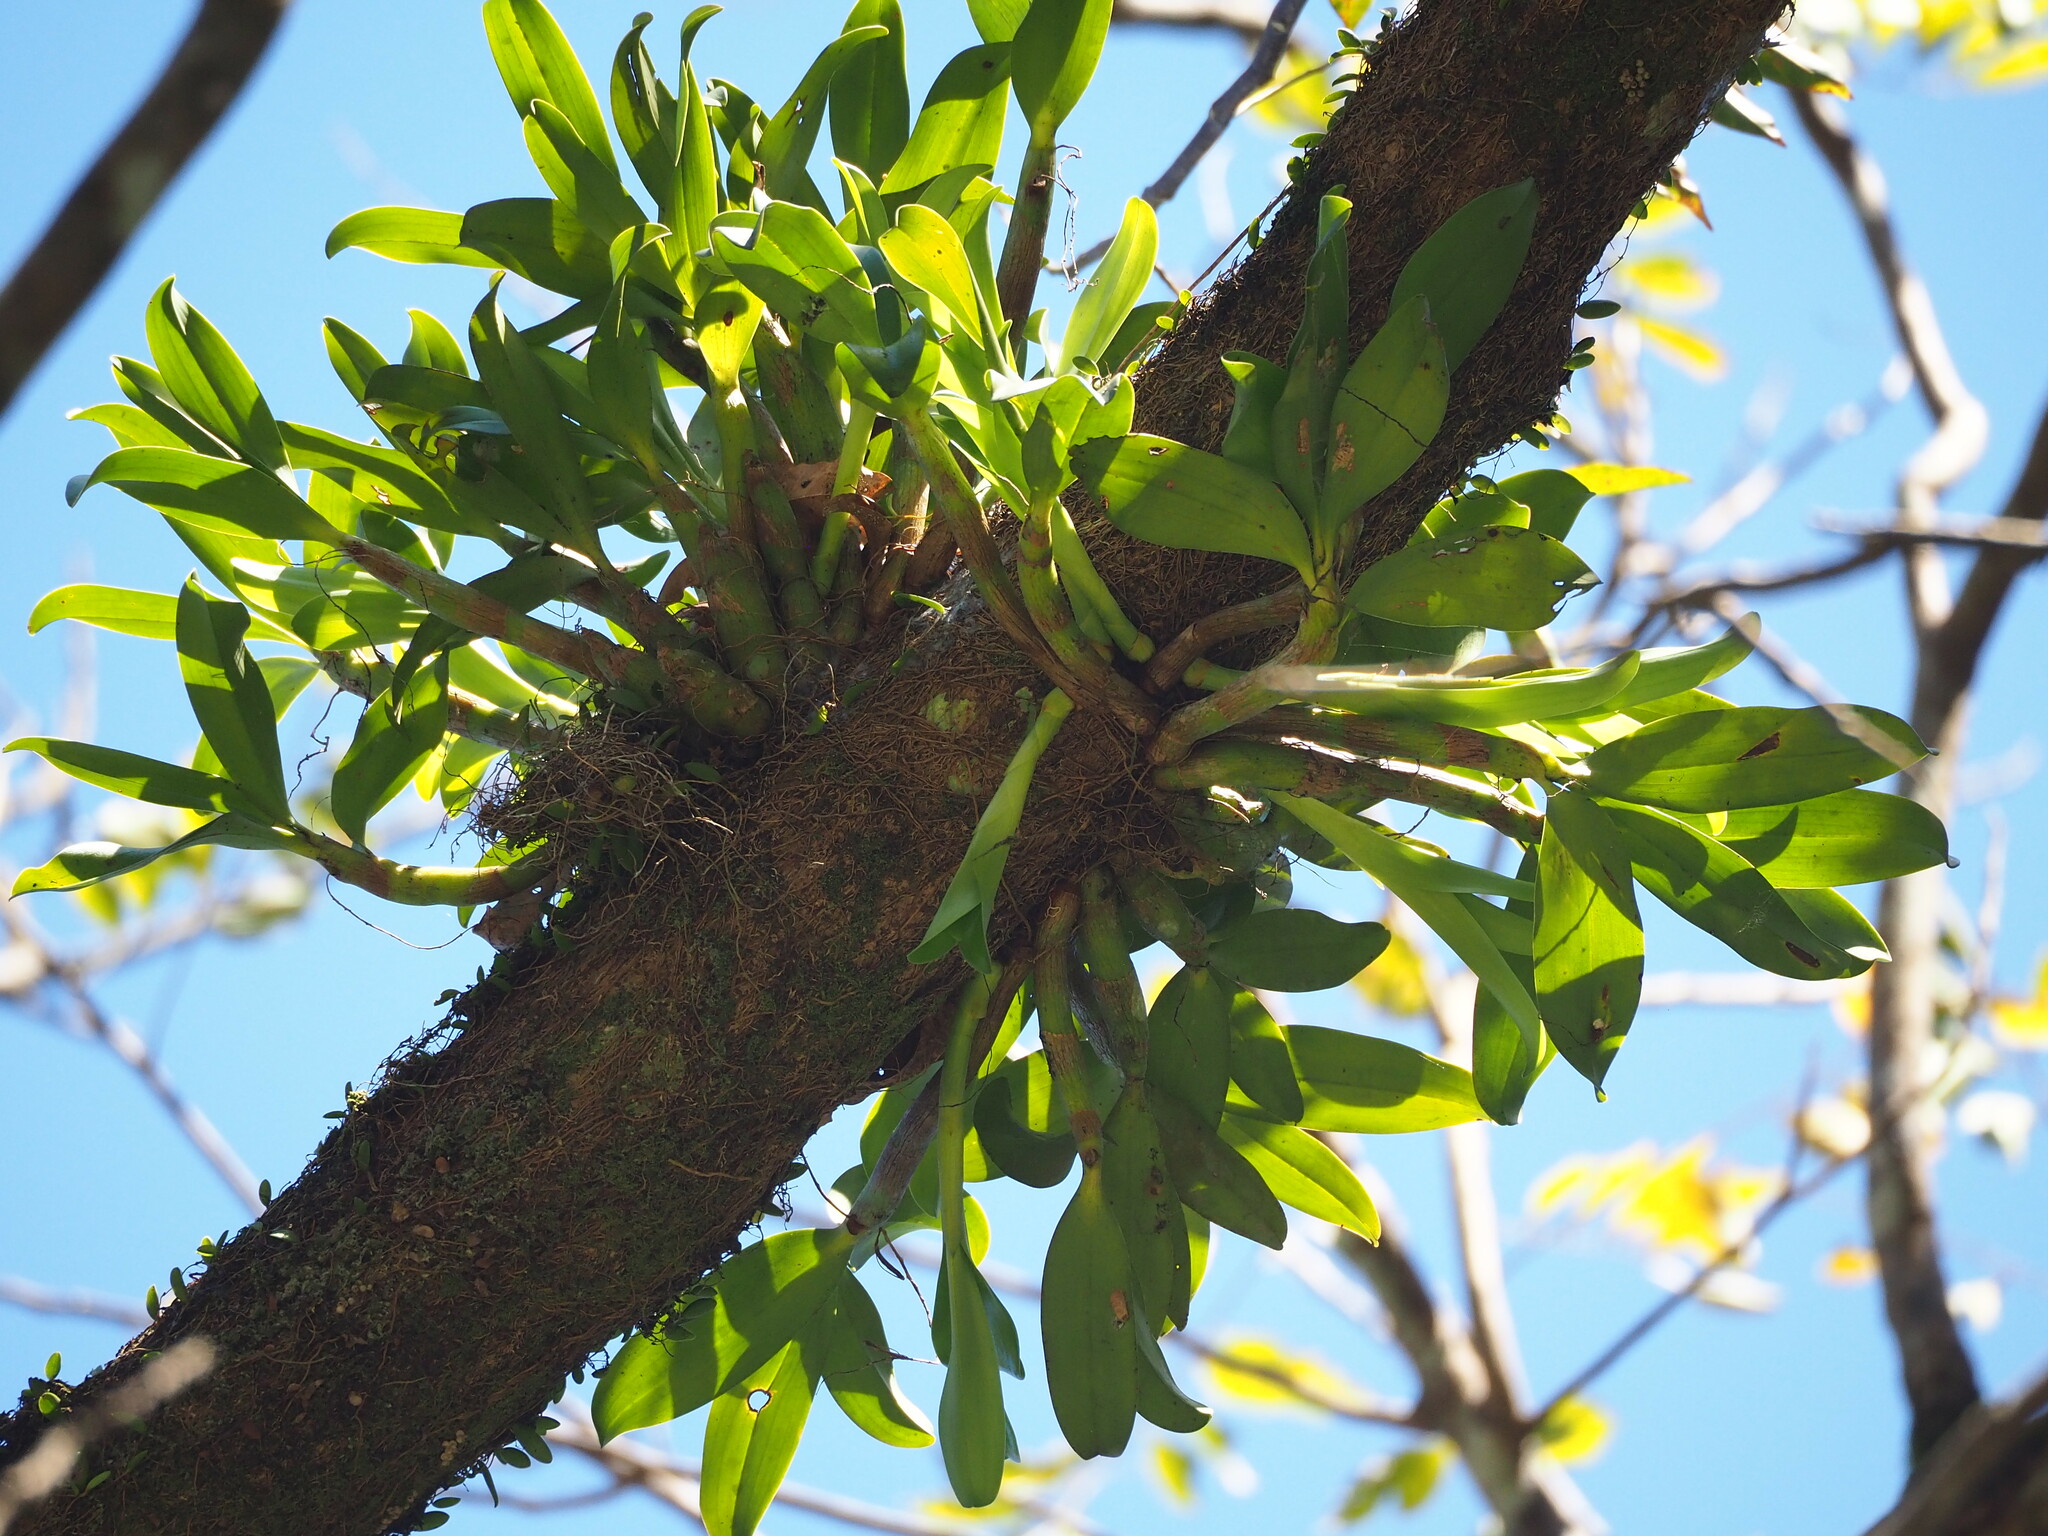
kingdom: Plantae
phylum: Tracheophyta
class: Liliopsida
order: Asparagales
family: Orchidaceae
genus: Pinalia
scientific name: Pinalia ovata
